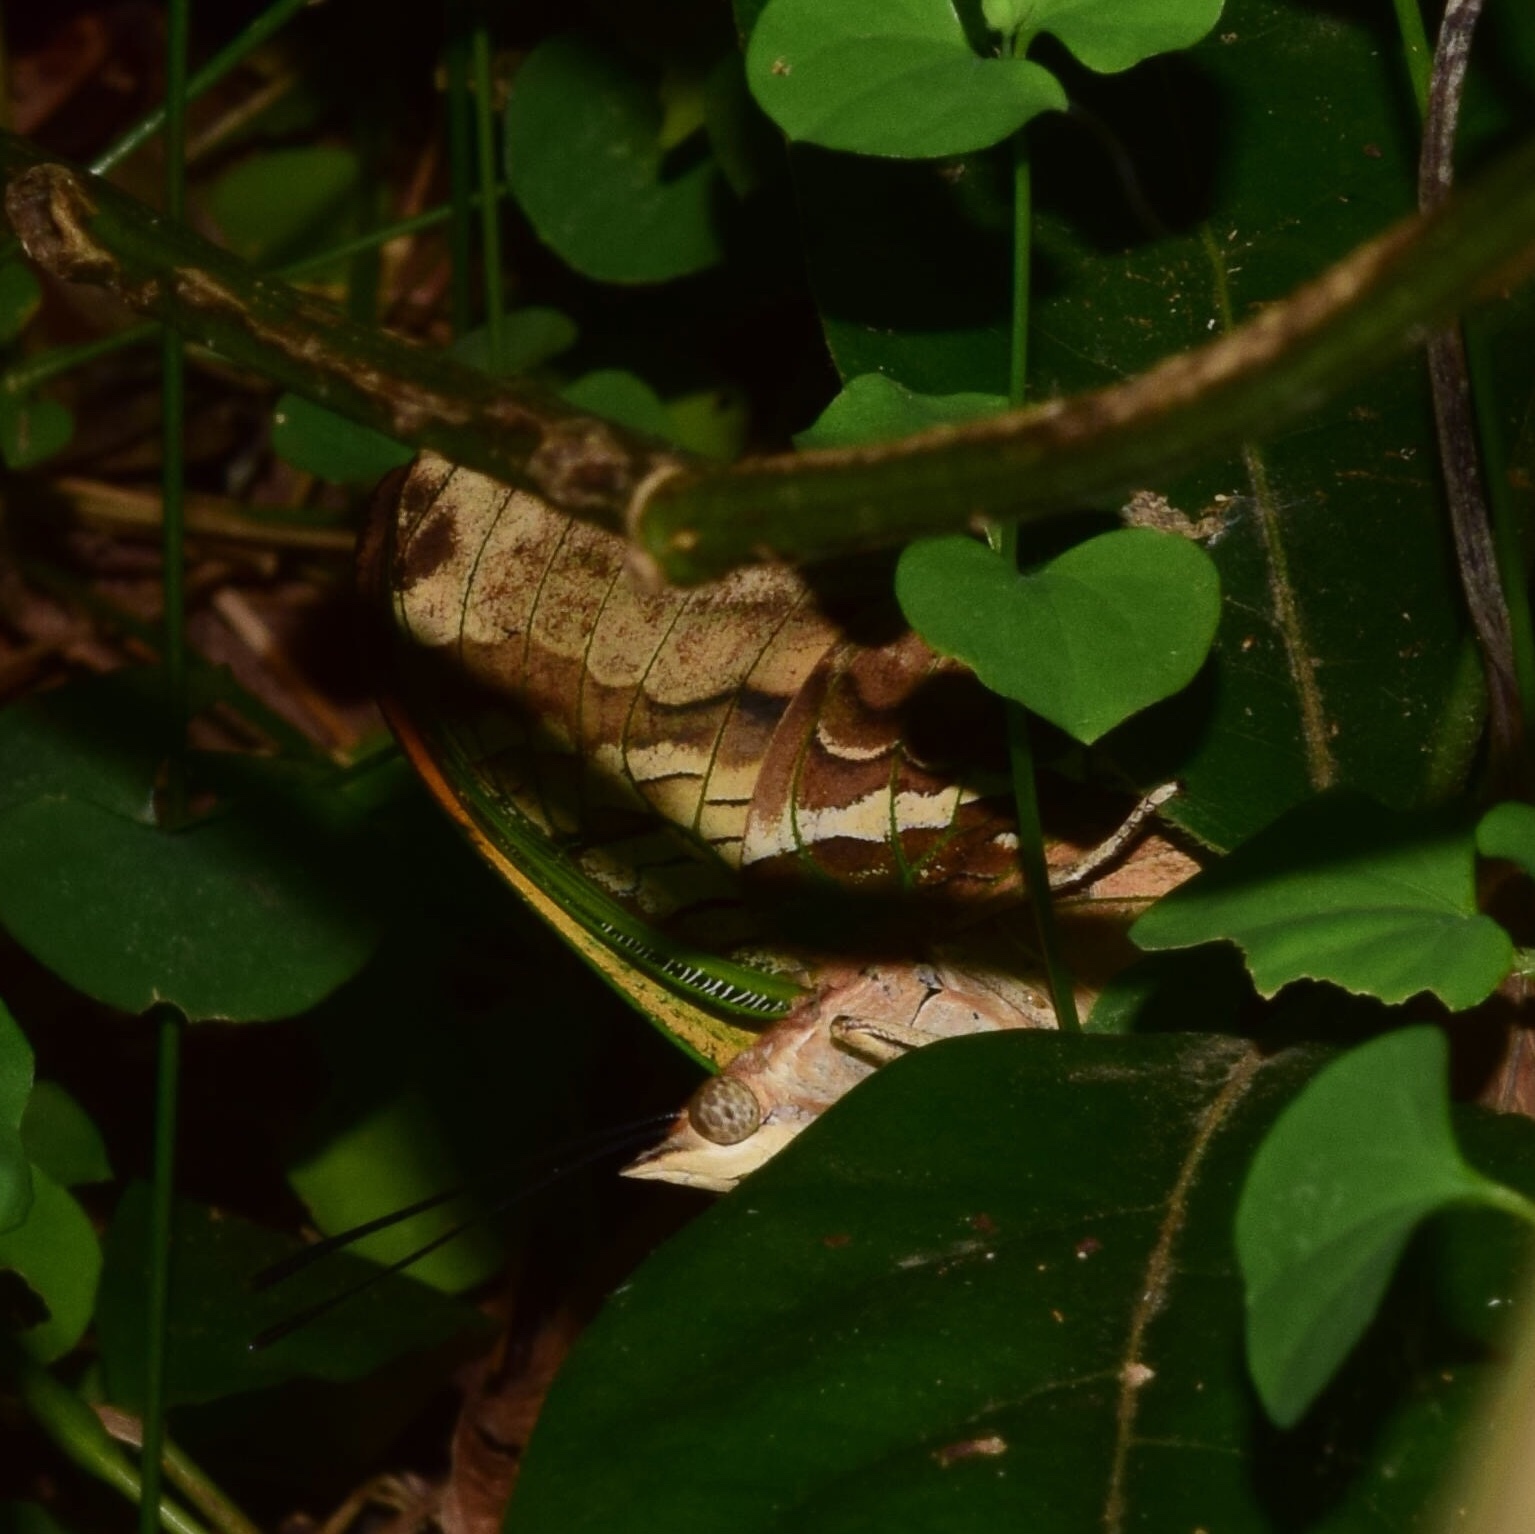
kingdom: Animalia
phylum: Arthropoda
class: Insecta
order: Lepidoptera
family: Nymphalidae
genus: Charaxes
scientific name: Charaxes candiope
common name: Green-veined charaxes
